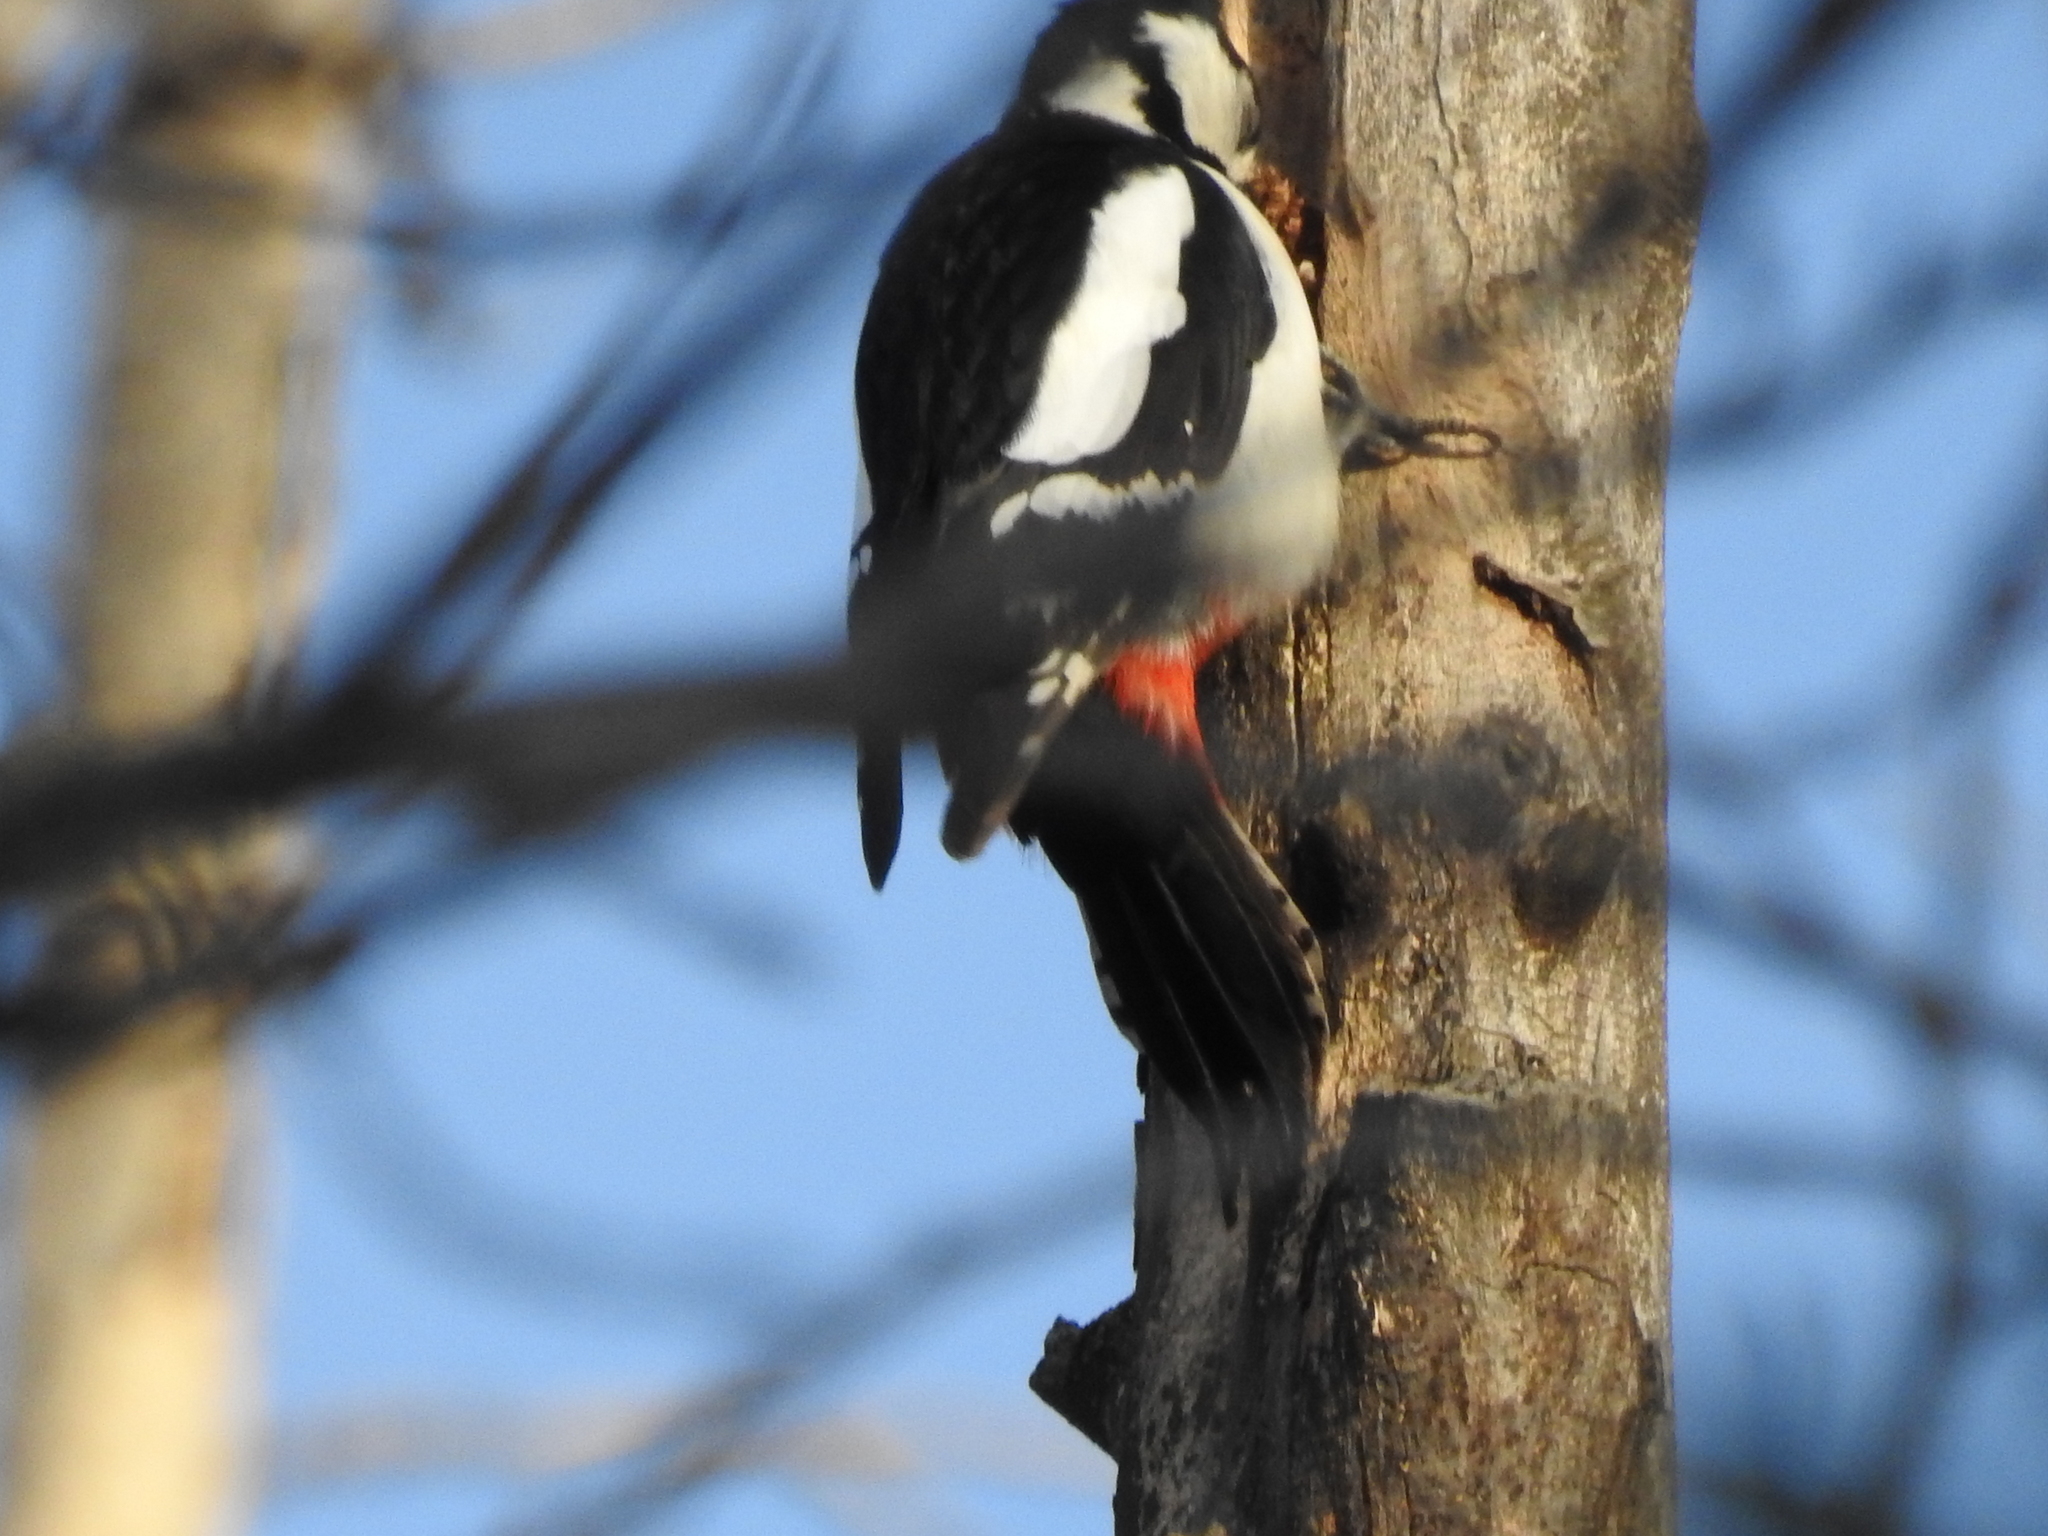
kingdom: Animalia
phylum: Chordata
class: Aves
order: Piciformes
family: Picidae
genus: Dendrocopos
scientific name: Dendrocopos major
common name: Great spotted woodpecker
